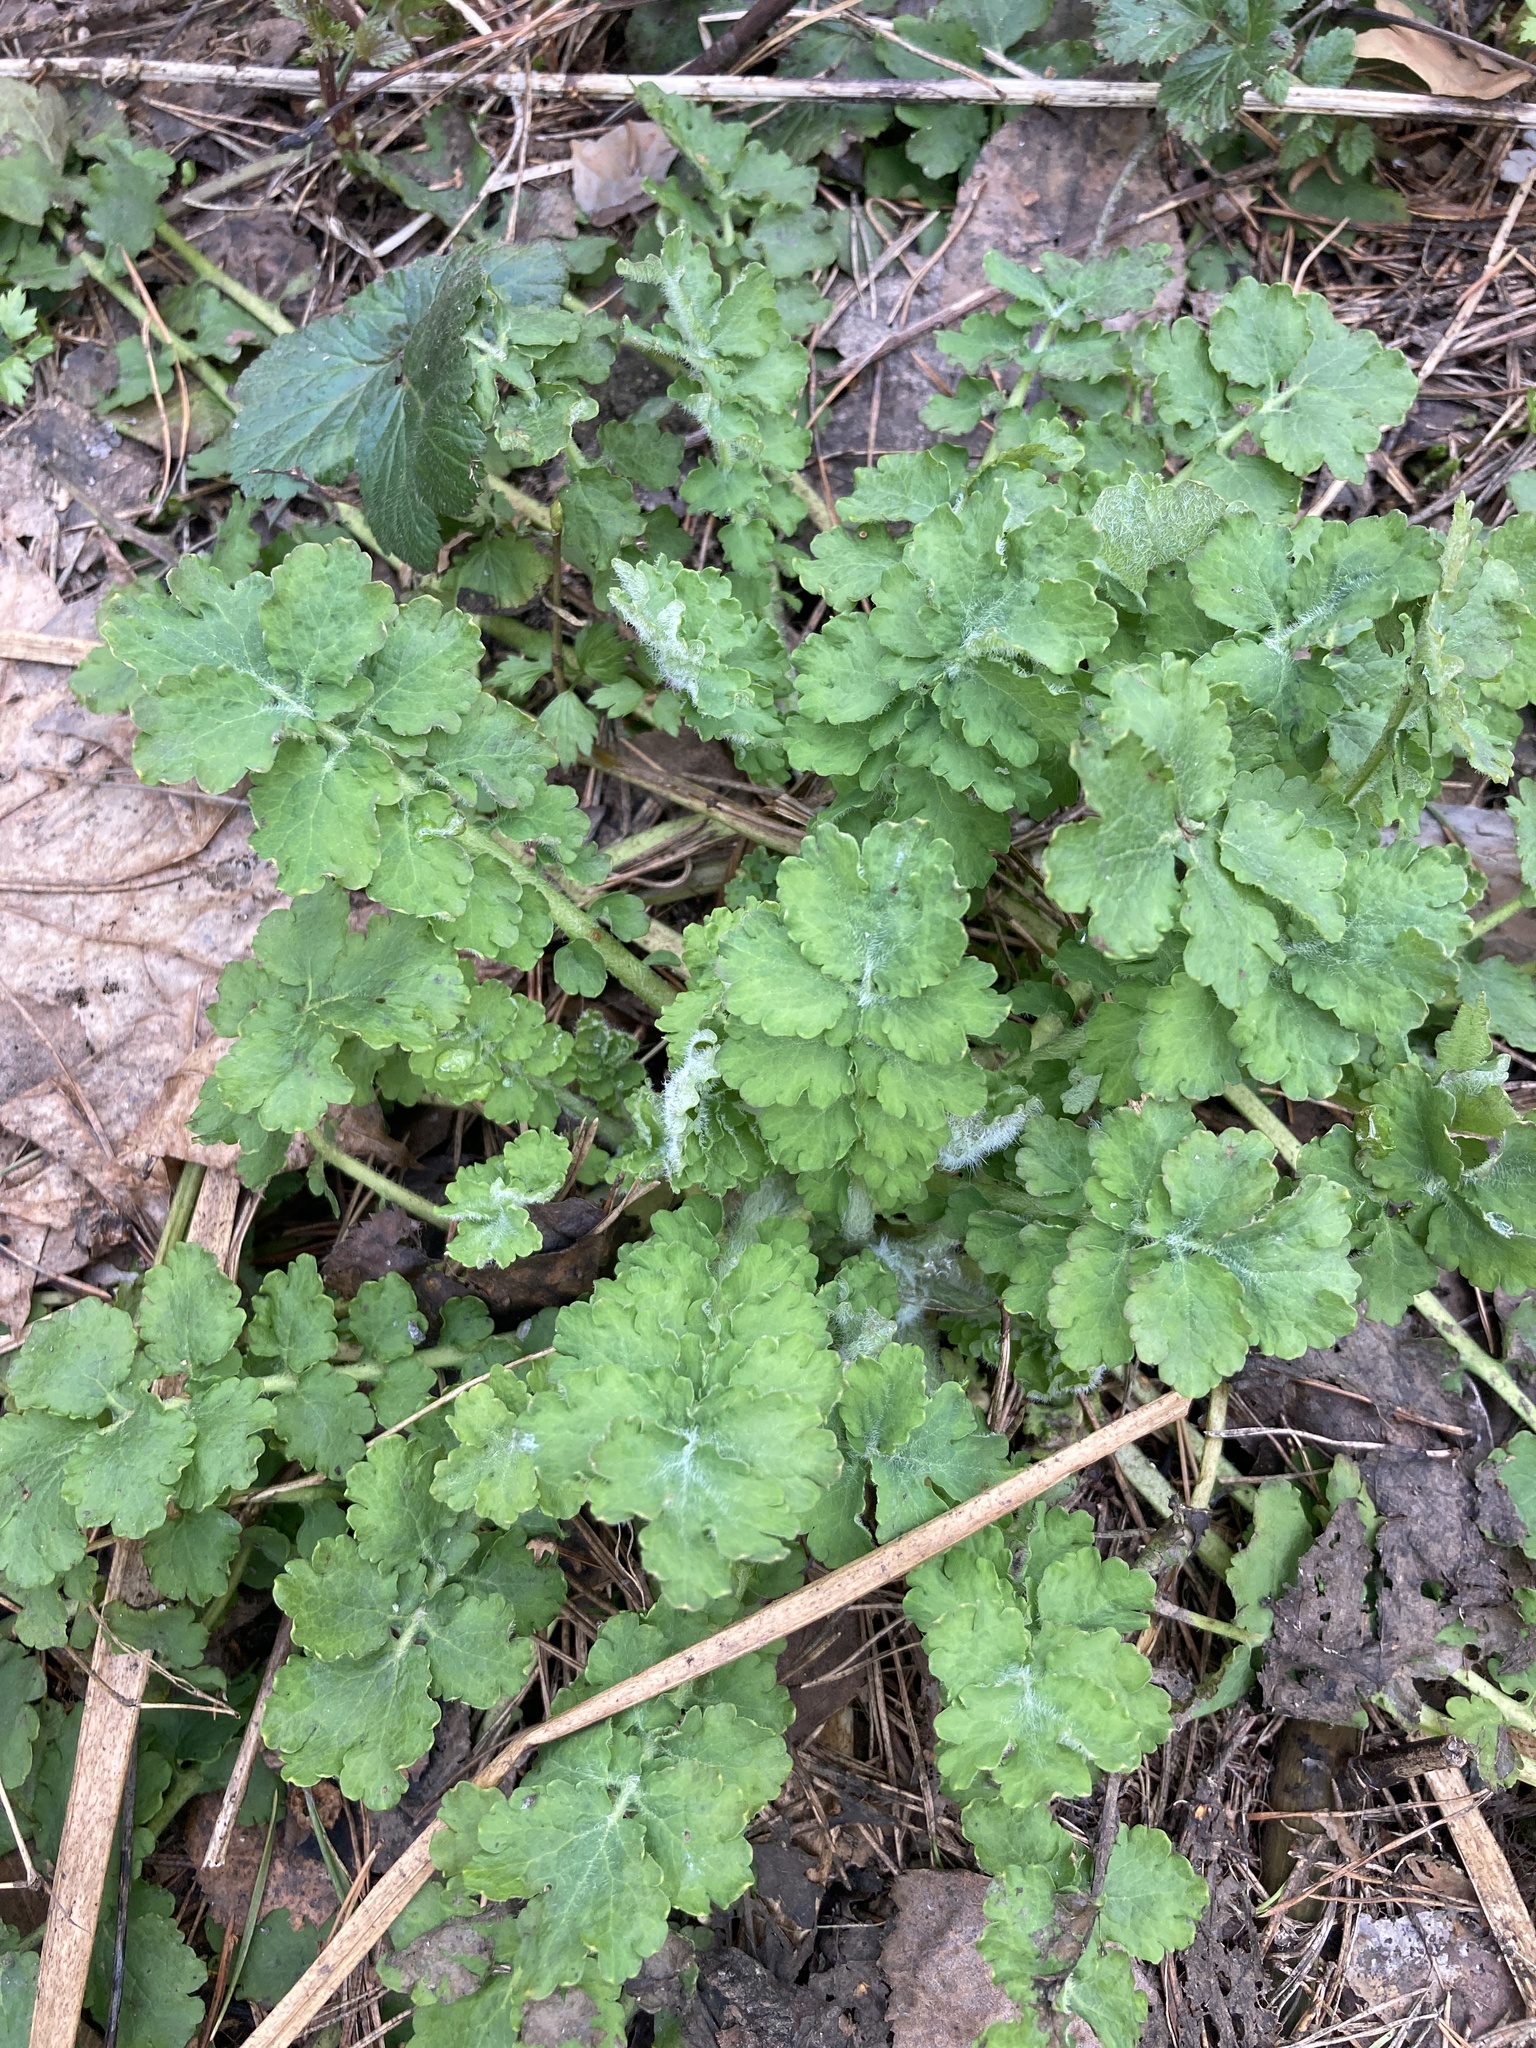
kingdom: Plantae
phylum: Tracheophyta
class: Magnoliopsida
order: Ranunculales
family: Papaveraceae
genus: Chelidonium
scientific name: Chelidonium majus
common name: Greater celandine
